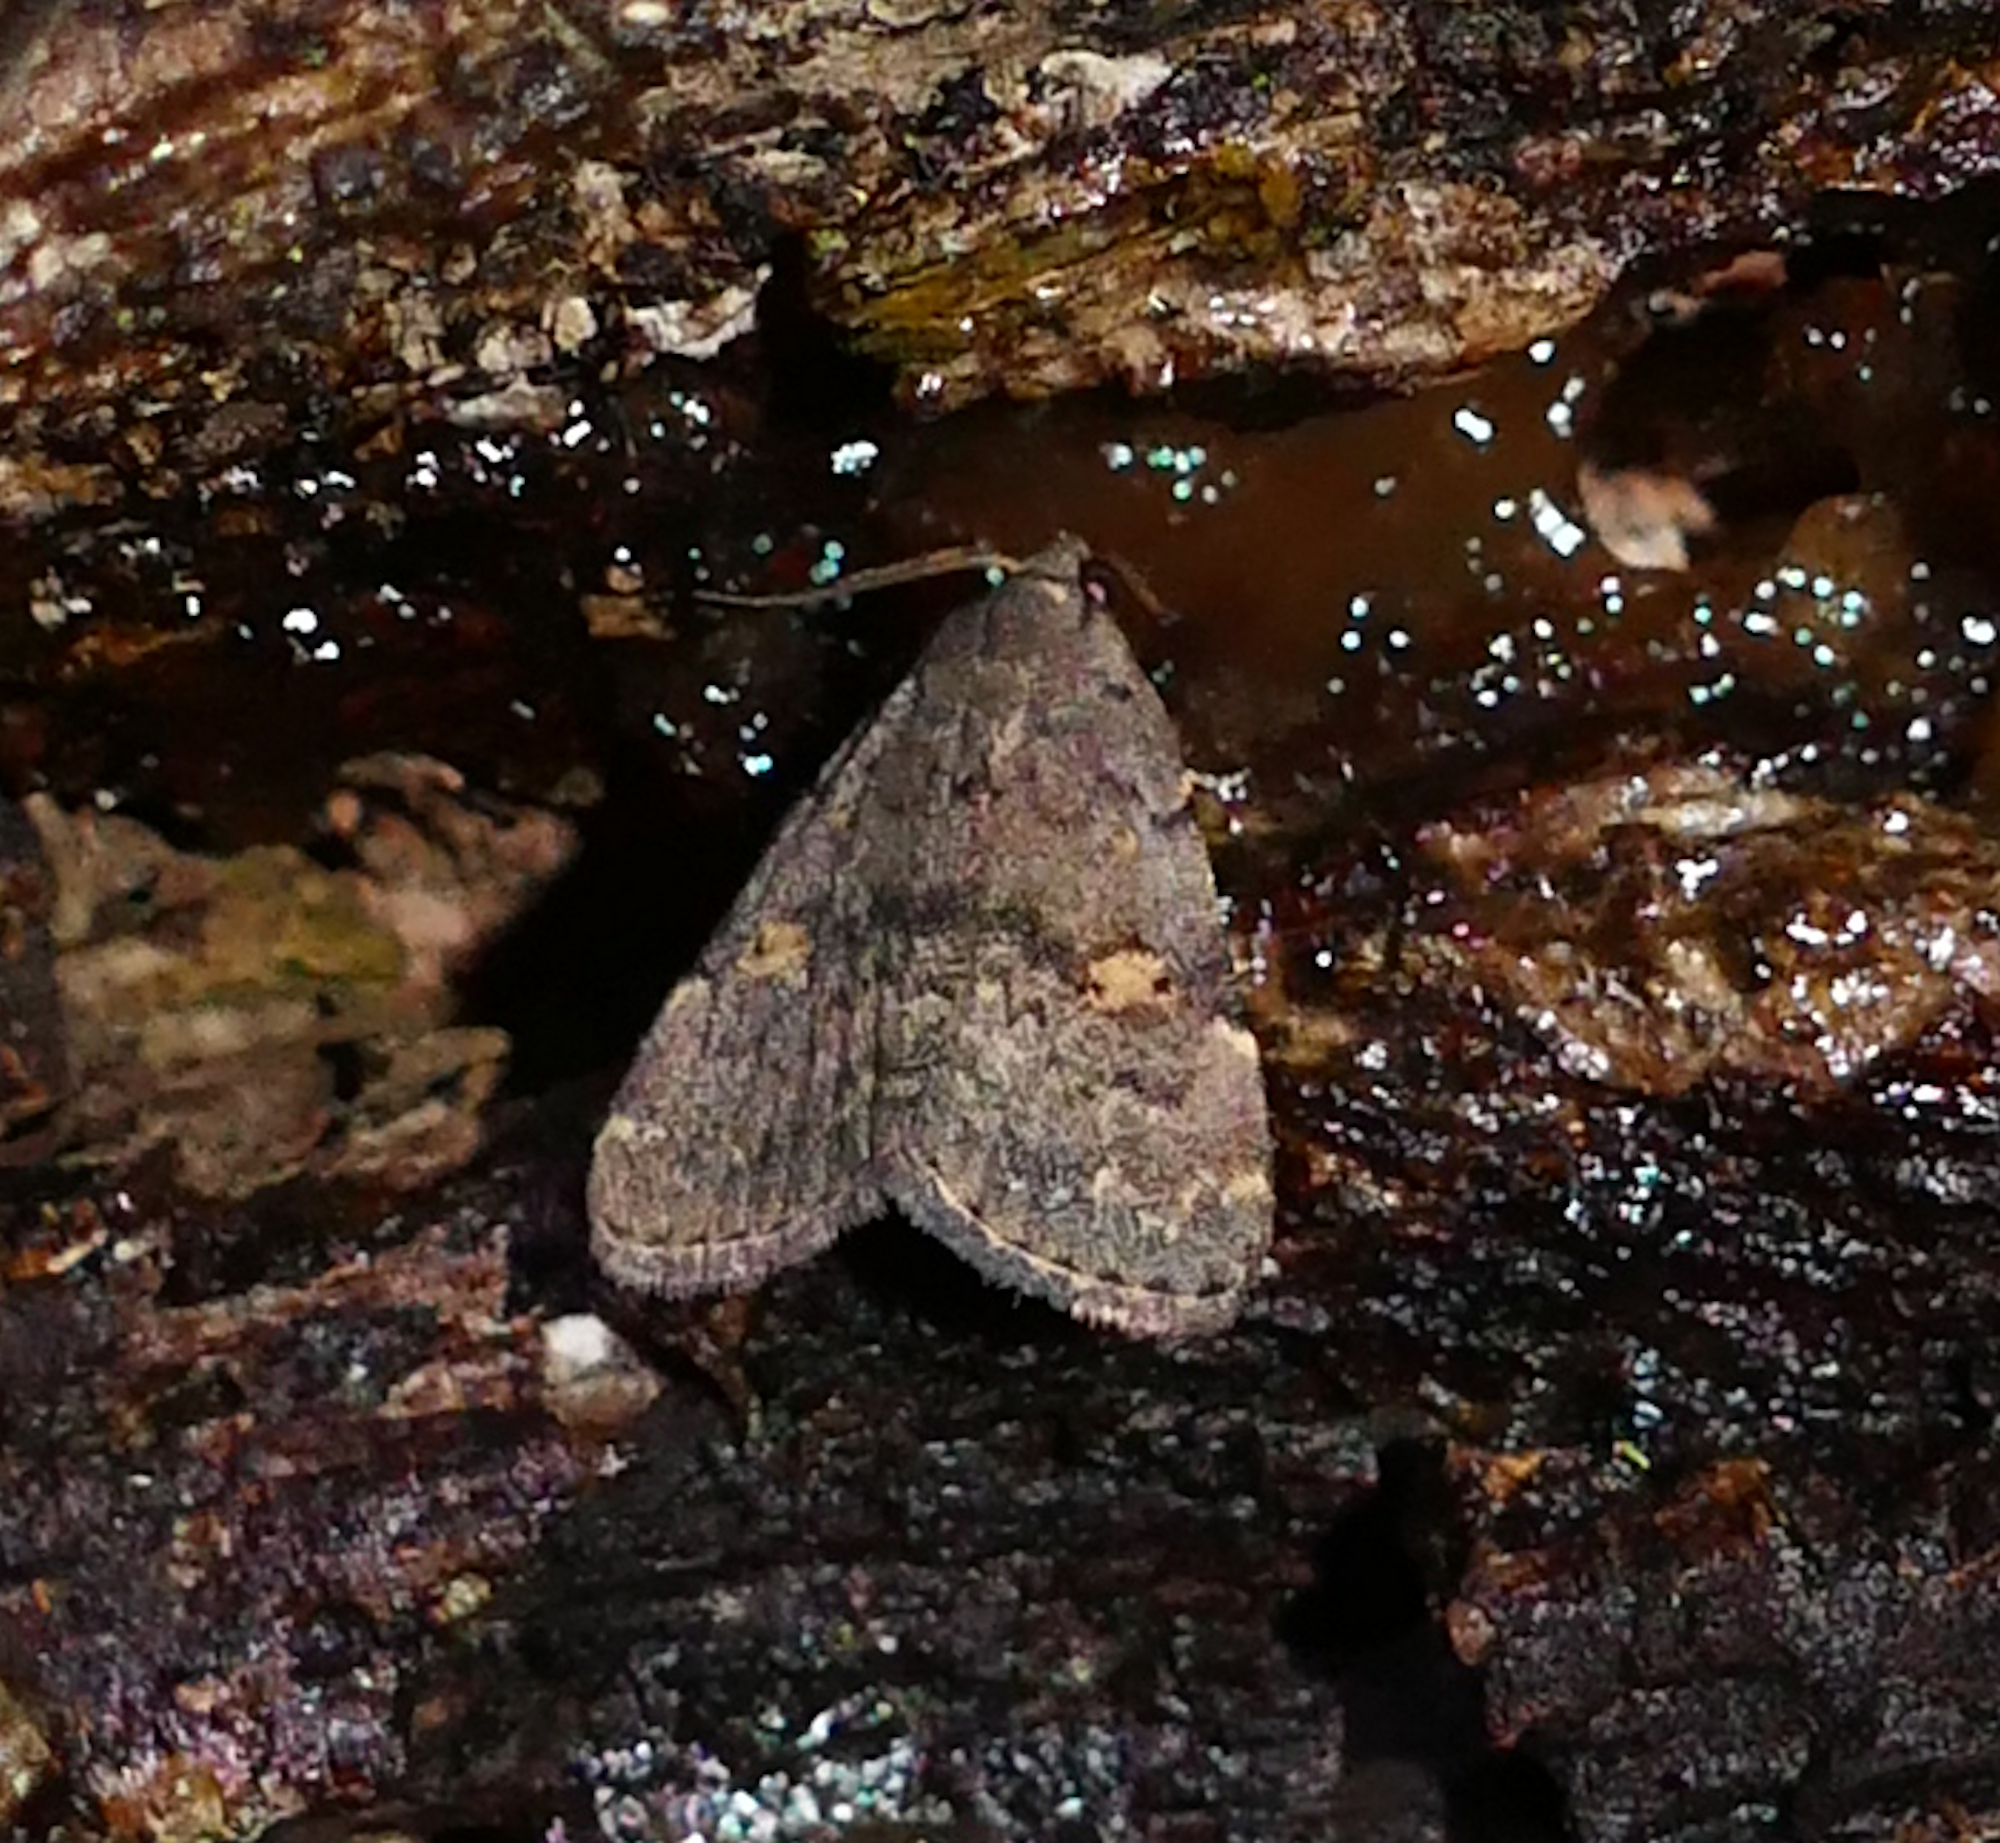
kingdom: Animalia
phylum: Arthropoda
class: Insecta
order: Lepidoptera
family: Erebidae
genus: Idia
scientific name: Idia aemula
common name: Common idia moth
